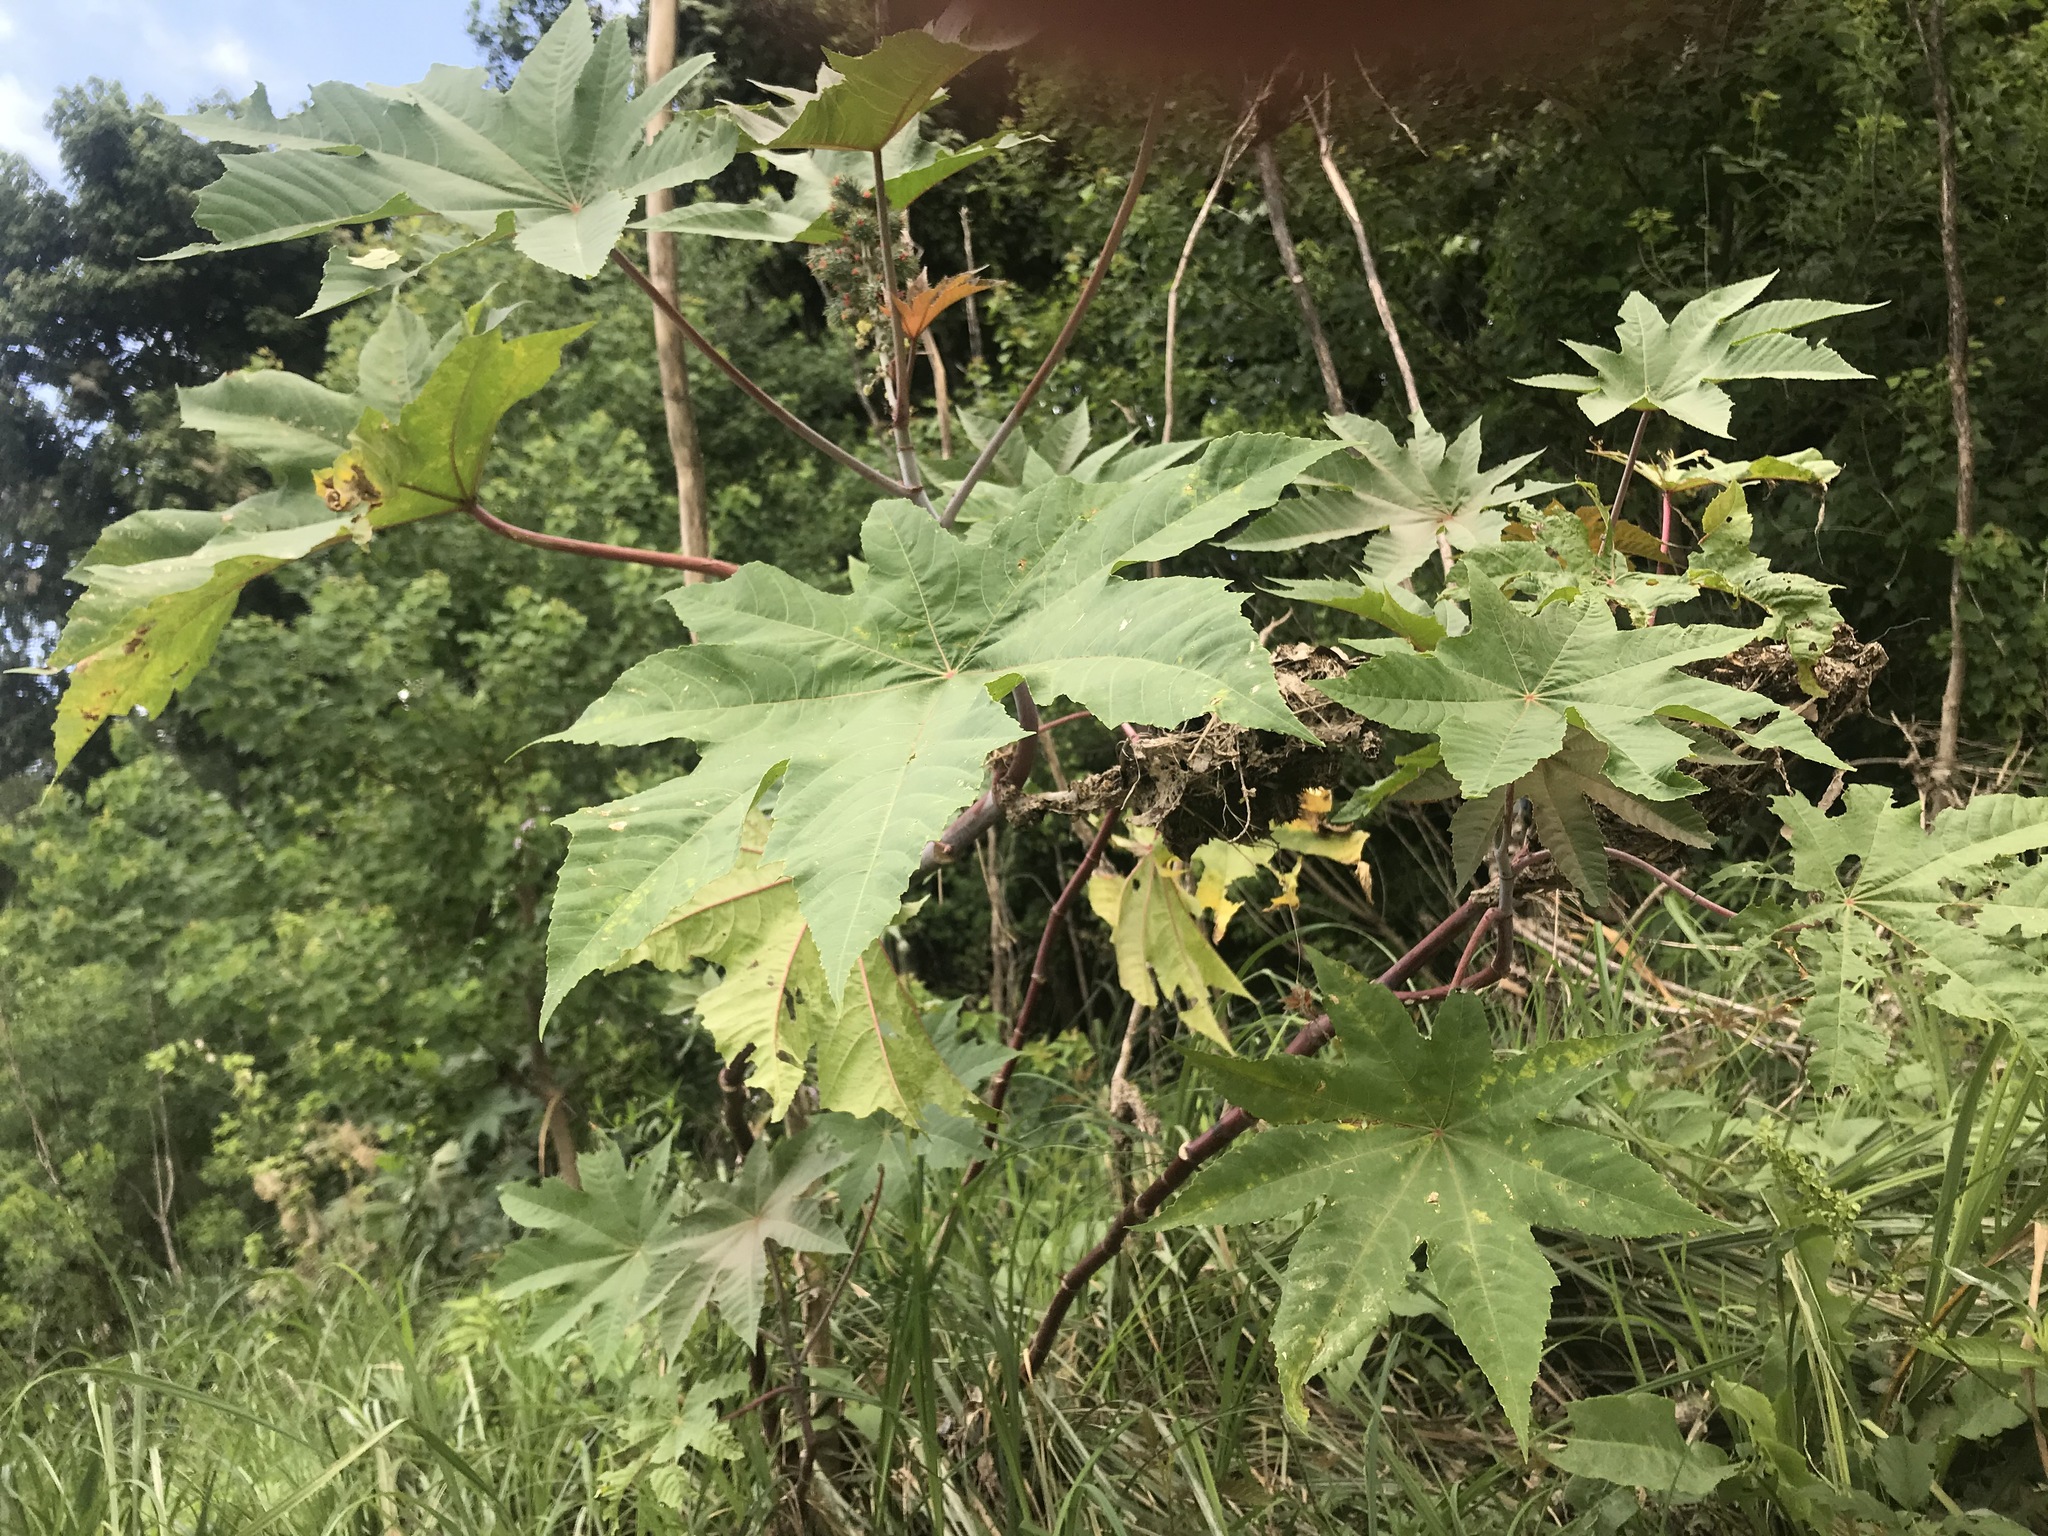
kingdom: Plantae
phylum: Tracheophyta
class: Magnoliopsida
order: Malpighiales
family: Euphorbiaceae
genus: Ricinus
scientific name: Ricinus communis
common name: Castor-oil-plant
